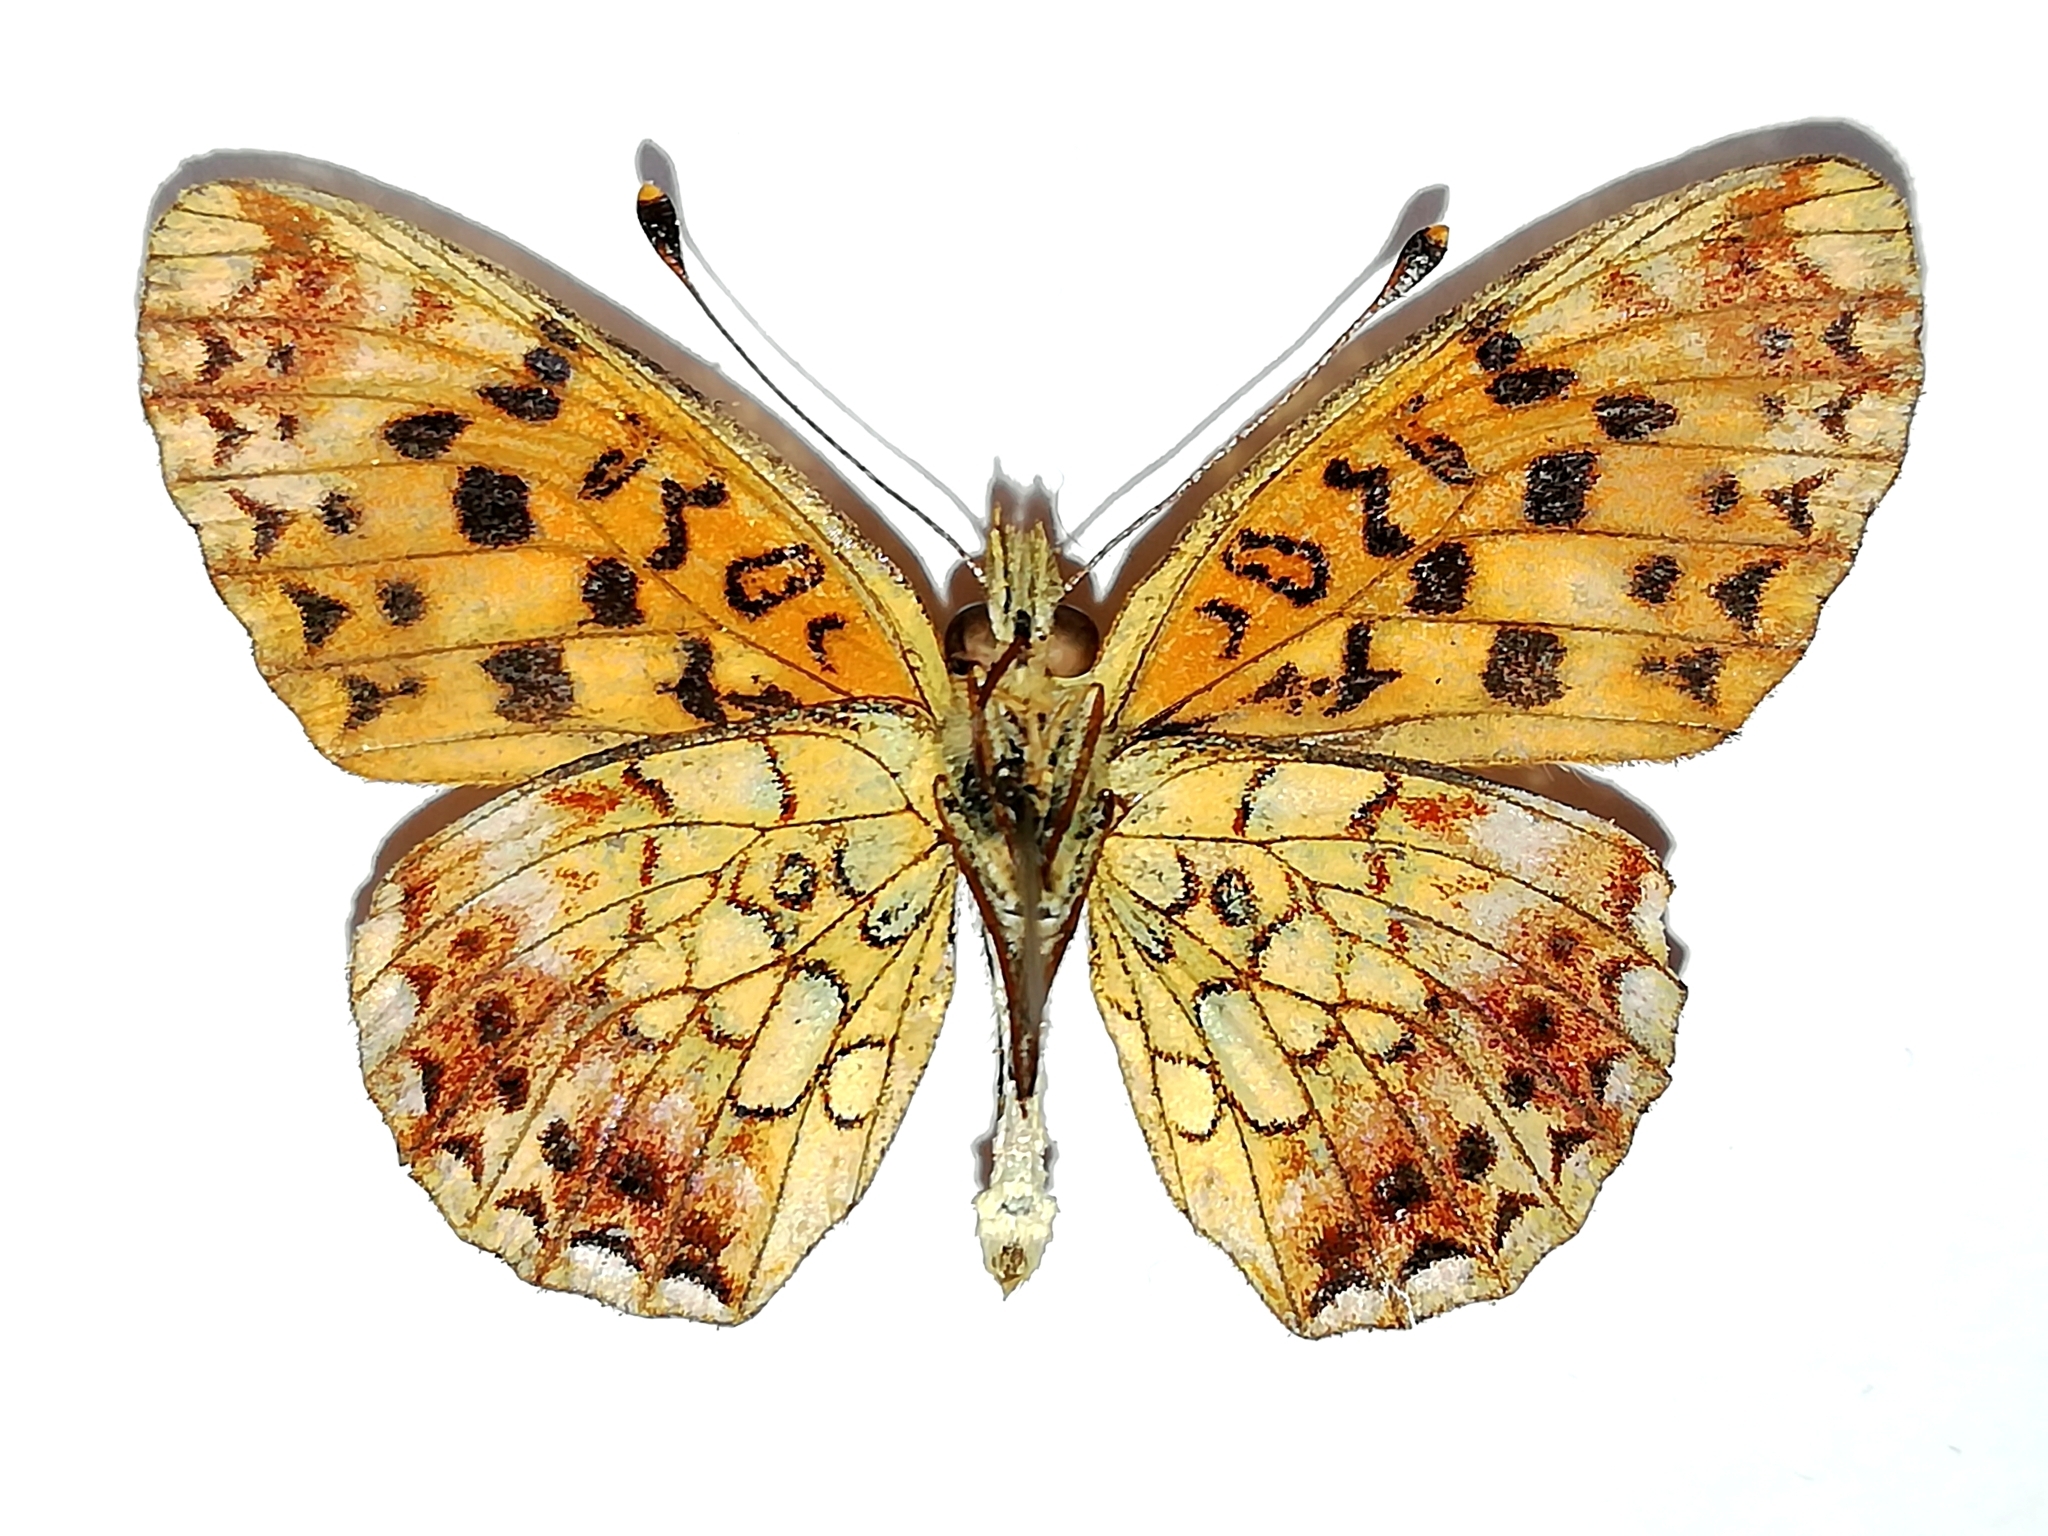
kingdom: Animalia
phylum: Arthropoda
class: Insecta
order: Lepidoptera
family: Nymphalidae
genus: Clossiana
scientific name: Clossiana selenis
